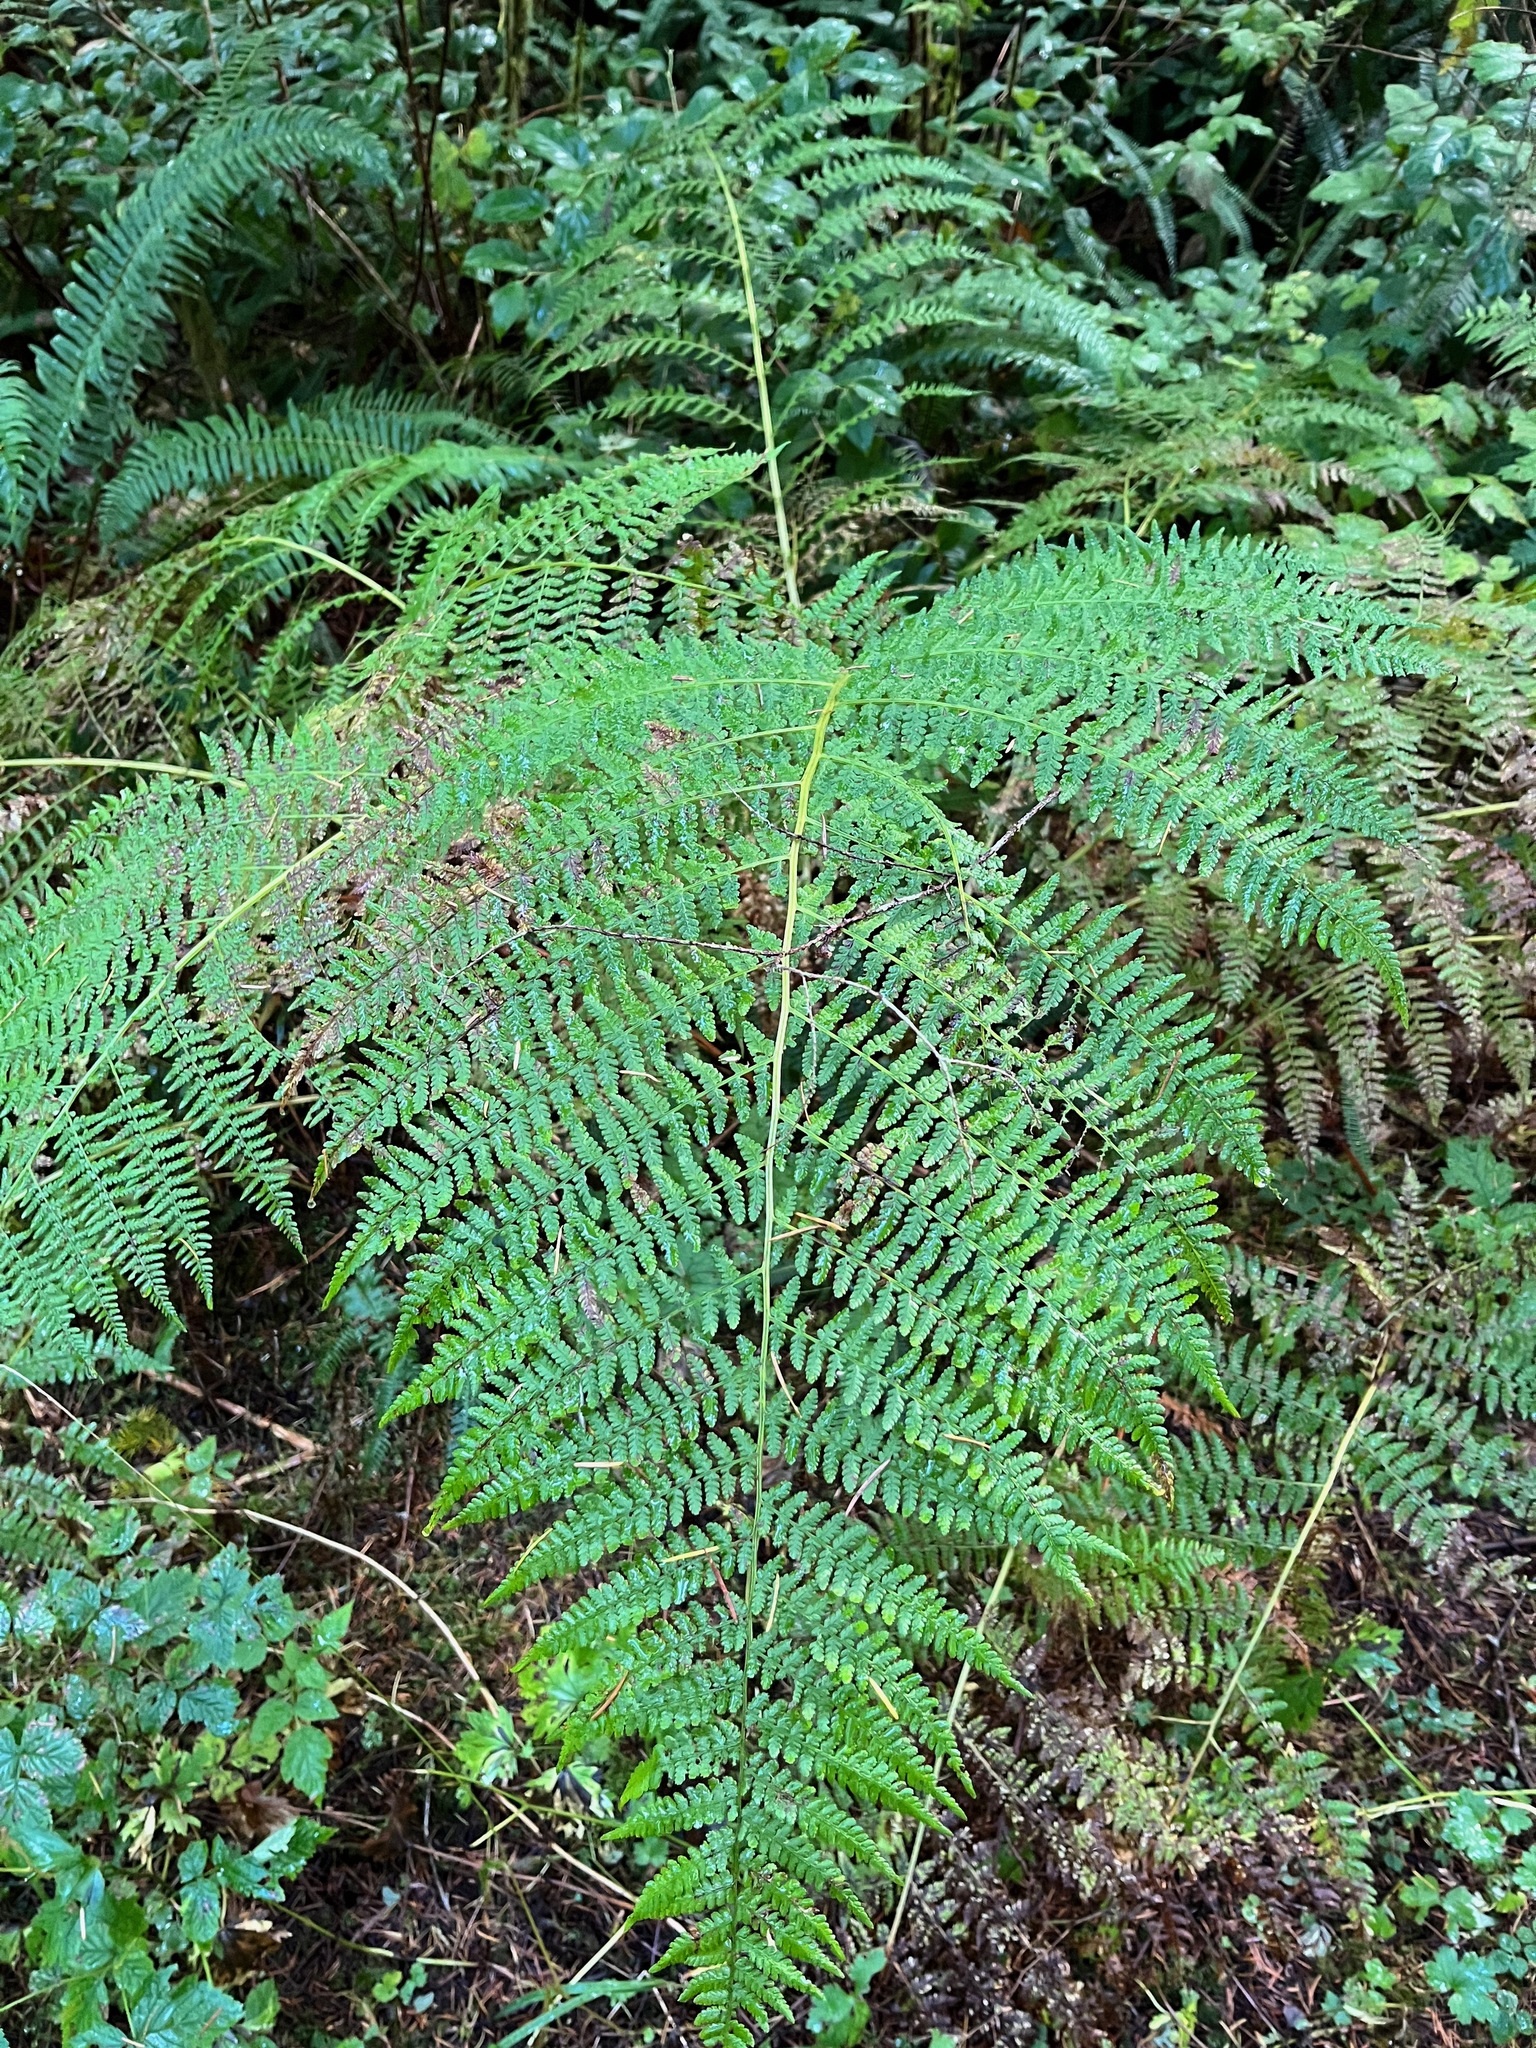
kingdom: Plantae
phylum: Tracheophyta
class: Polypodiopsida
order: Polypodiales
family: Athyriaceae
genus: Athyrium
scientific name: Athyrium filix-femina
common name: Lady fern
